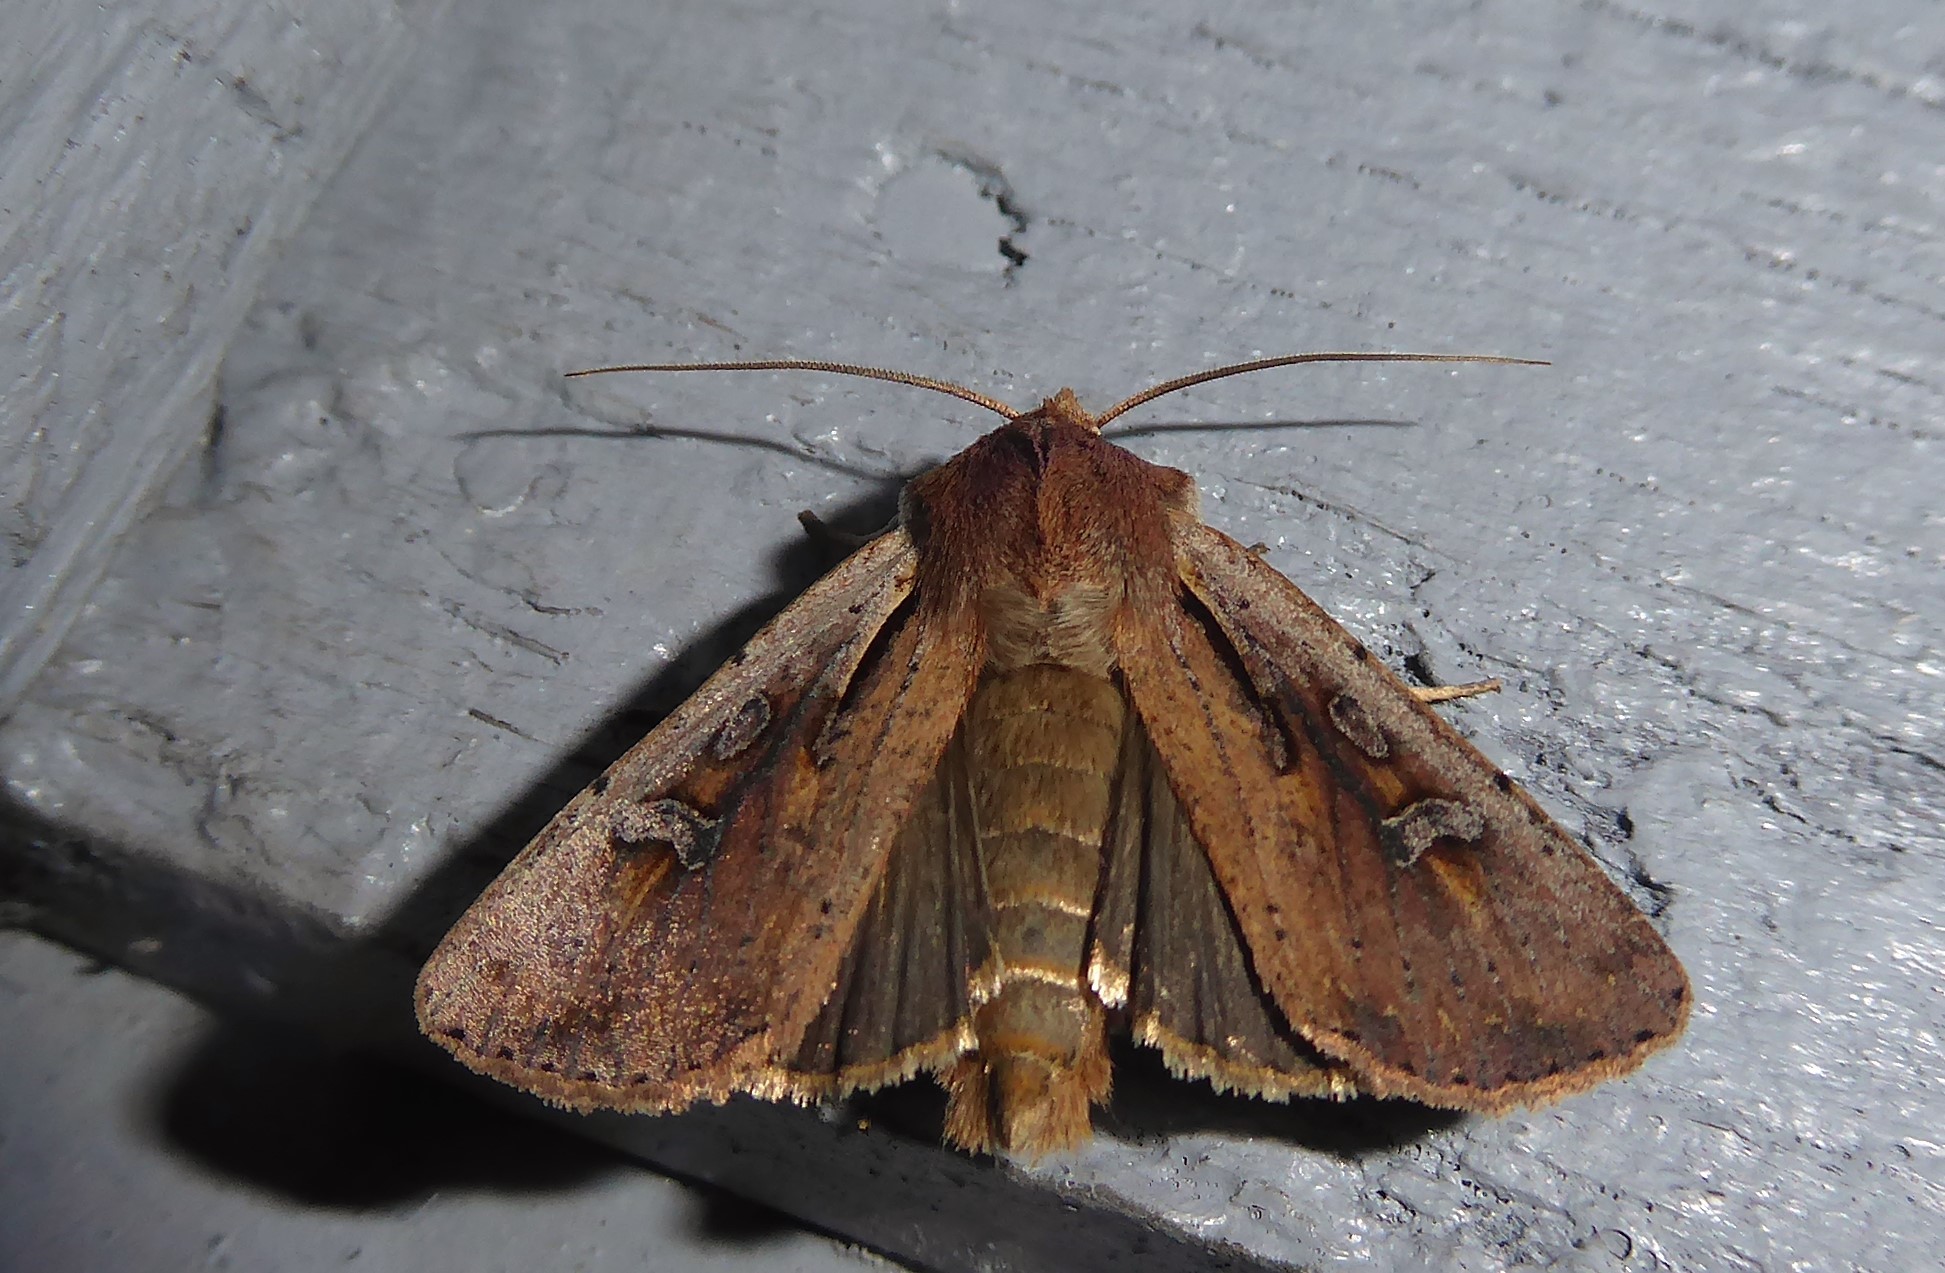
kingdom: Animalia
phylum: Arthropoda
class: Insecta
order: Lepidoptera
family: Noctuidae
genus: Ichneutica
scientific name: Ichneutica atristriga
